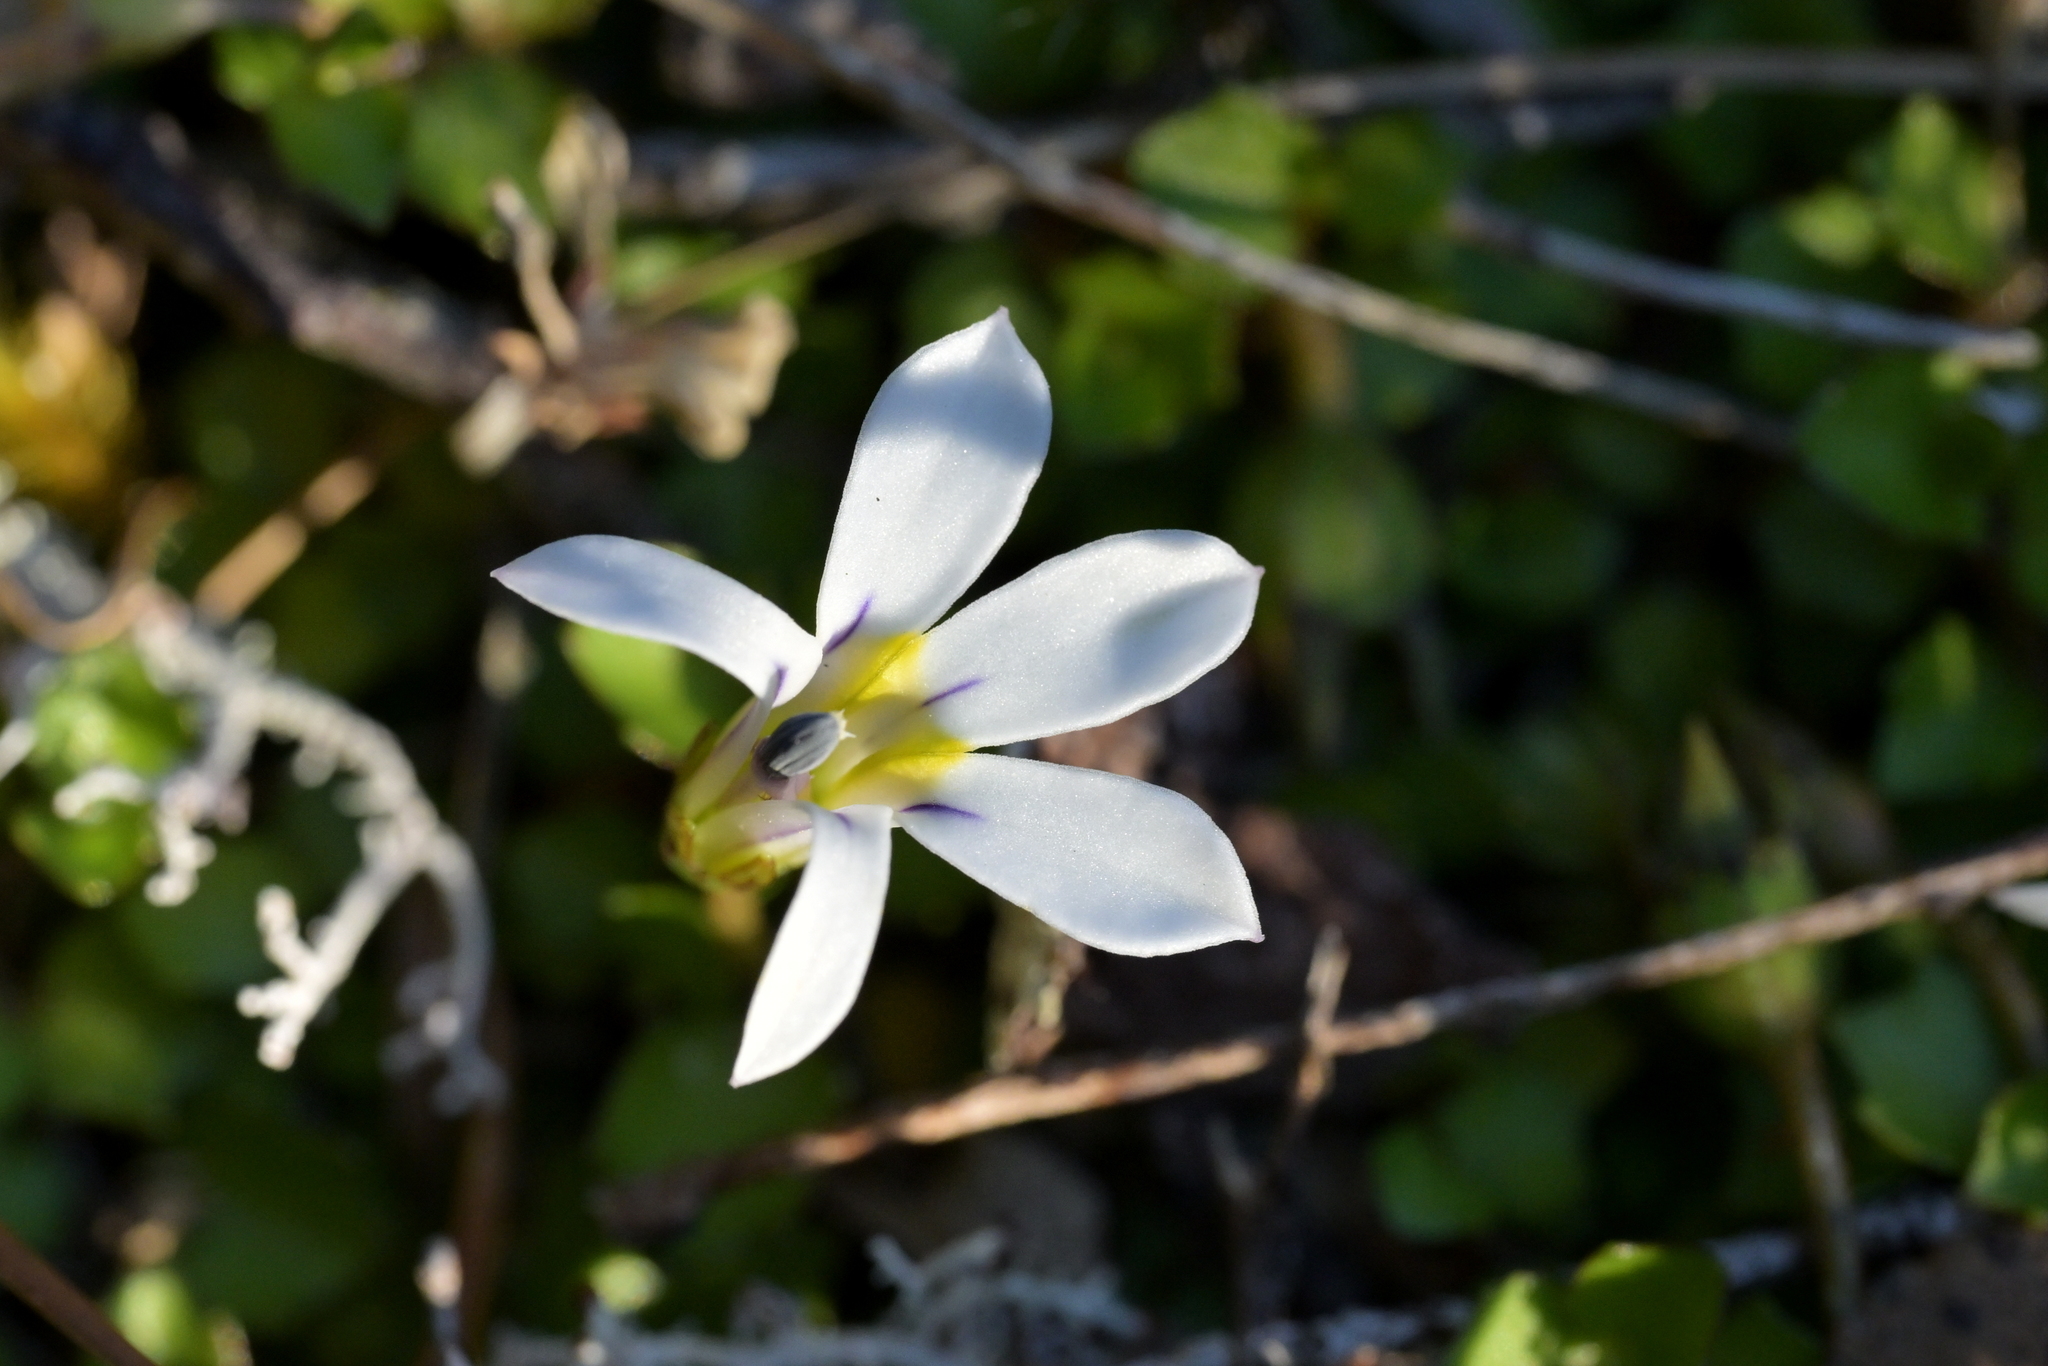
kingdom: Plantae
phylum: Tracheophyta
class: Magnoliopsida
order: Asterales
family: Campanulaceae
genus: Lobelia
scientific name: Lobelia angulata
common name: Lawn lobelia
